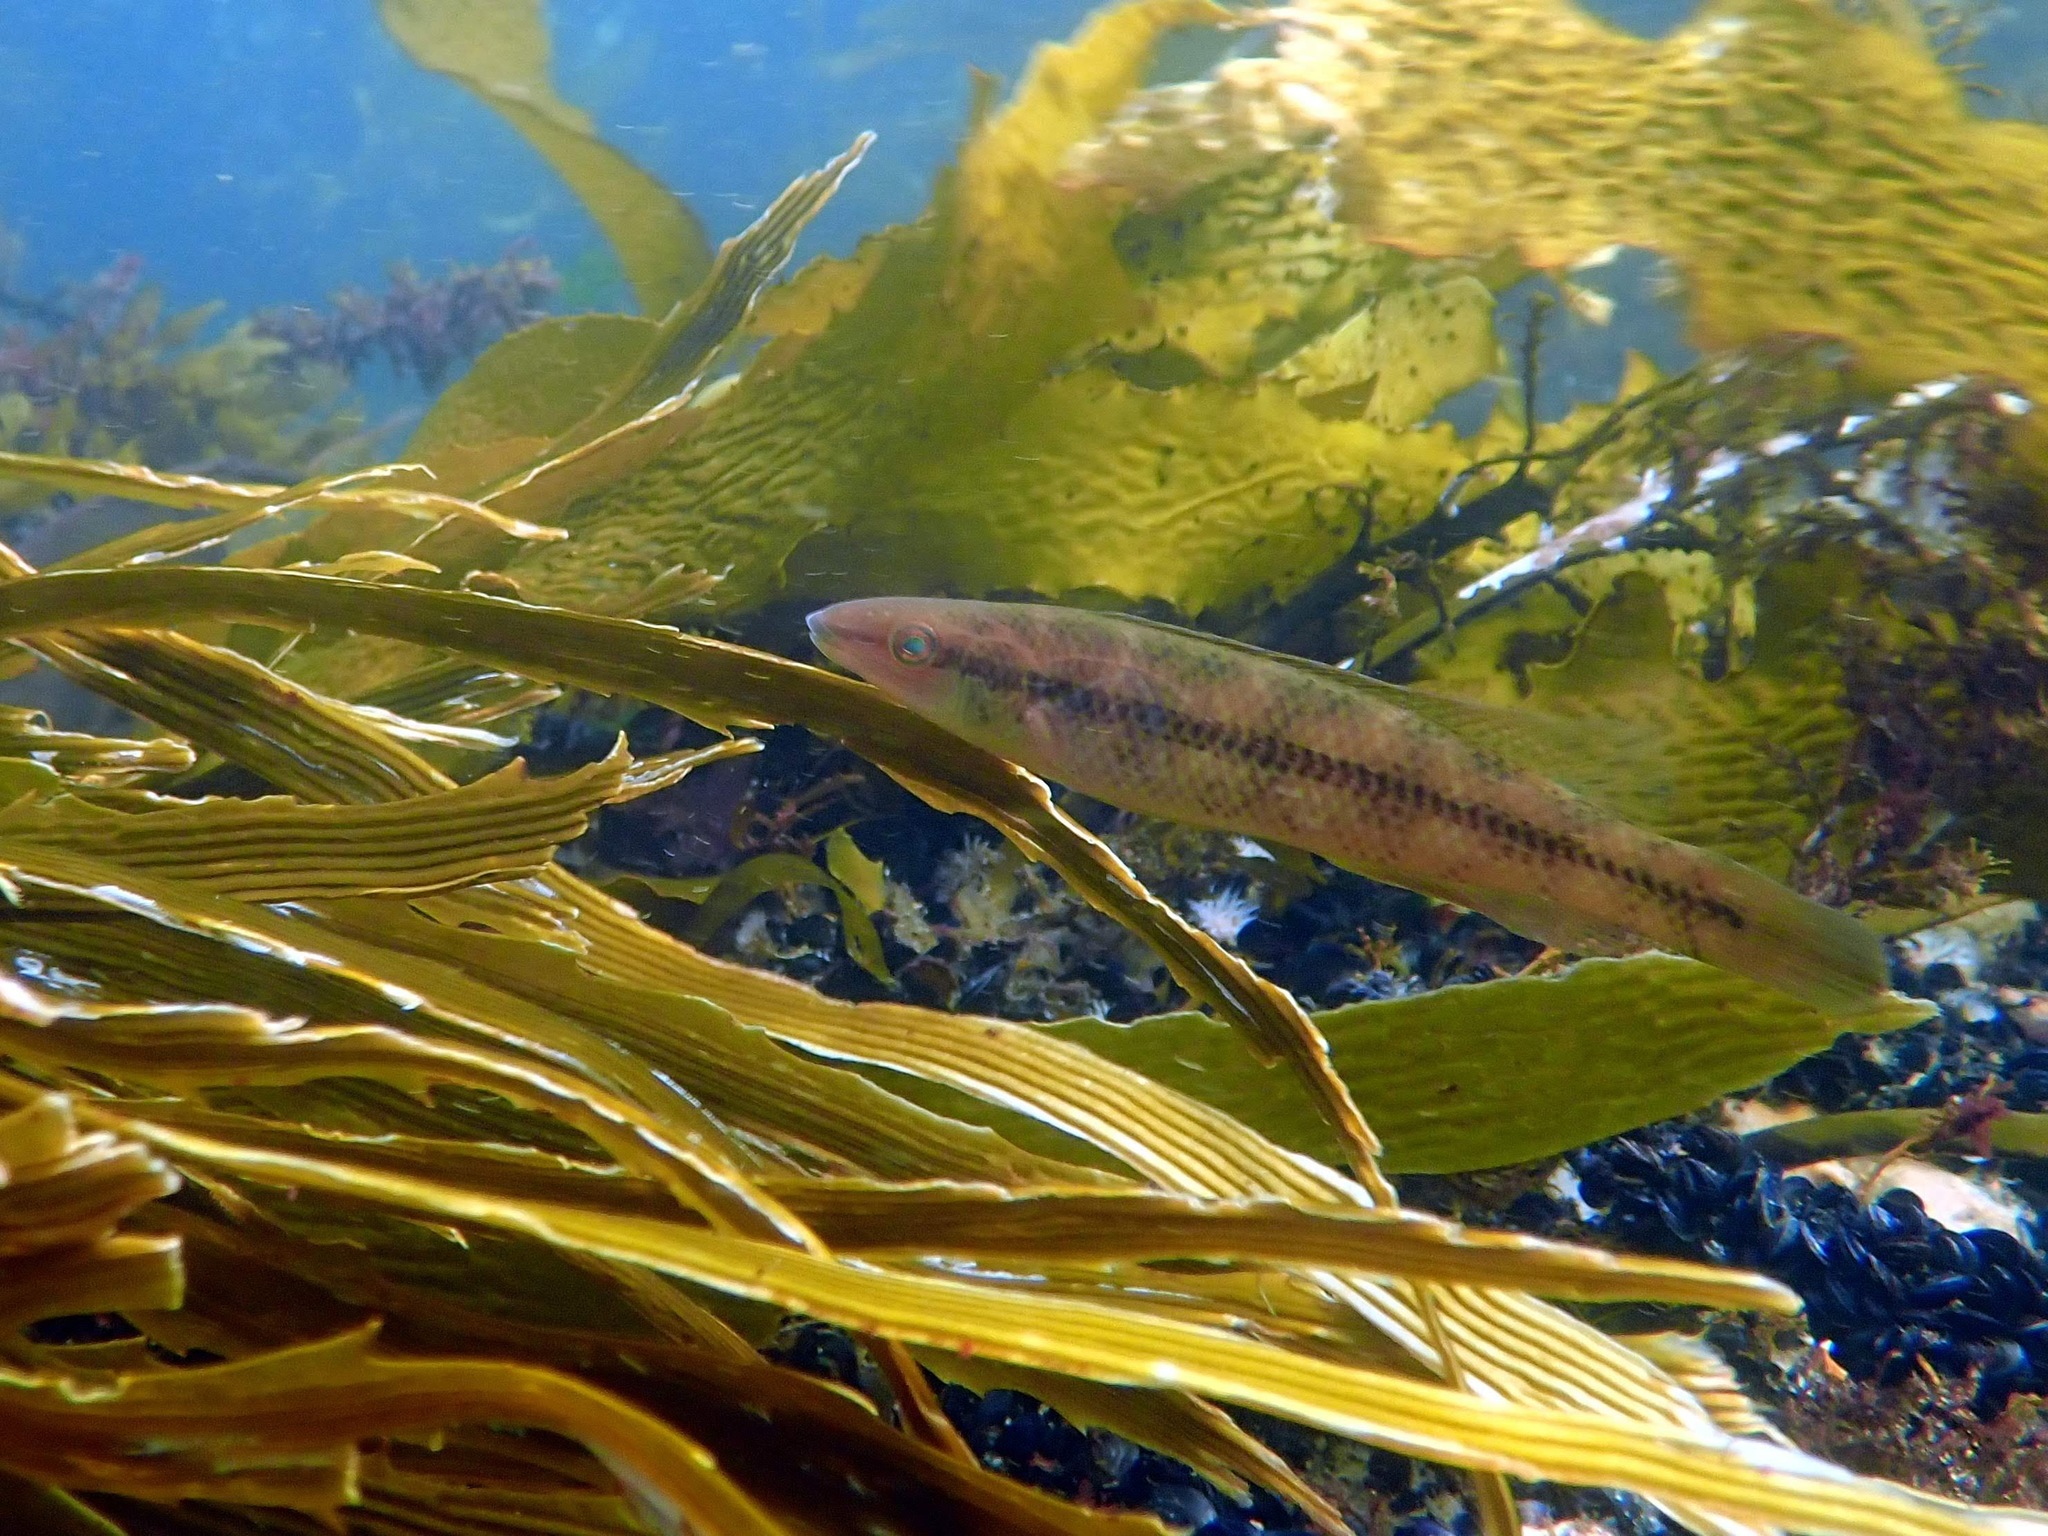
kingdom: Animalia
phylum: Chordata
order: Perciformes
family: Odacidae
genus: Neoodax
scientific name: Neoodax balteatus
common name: Ground mullet
